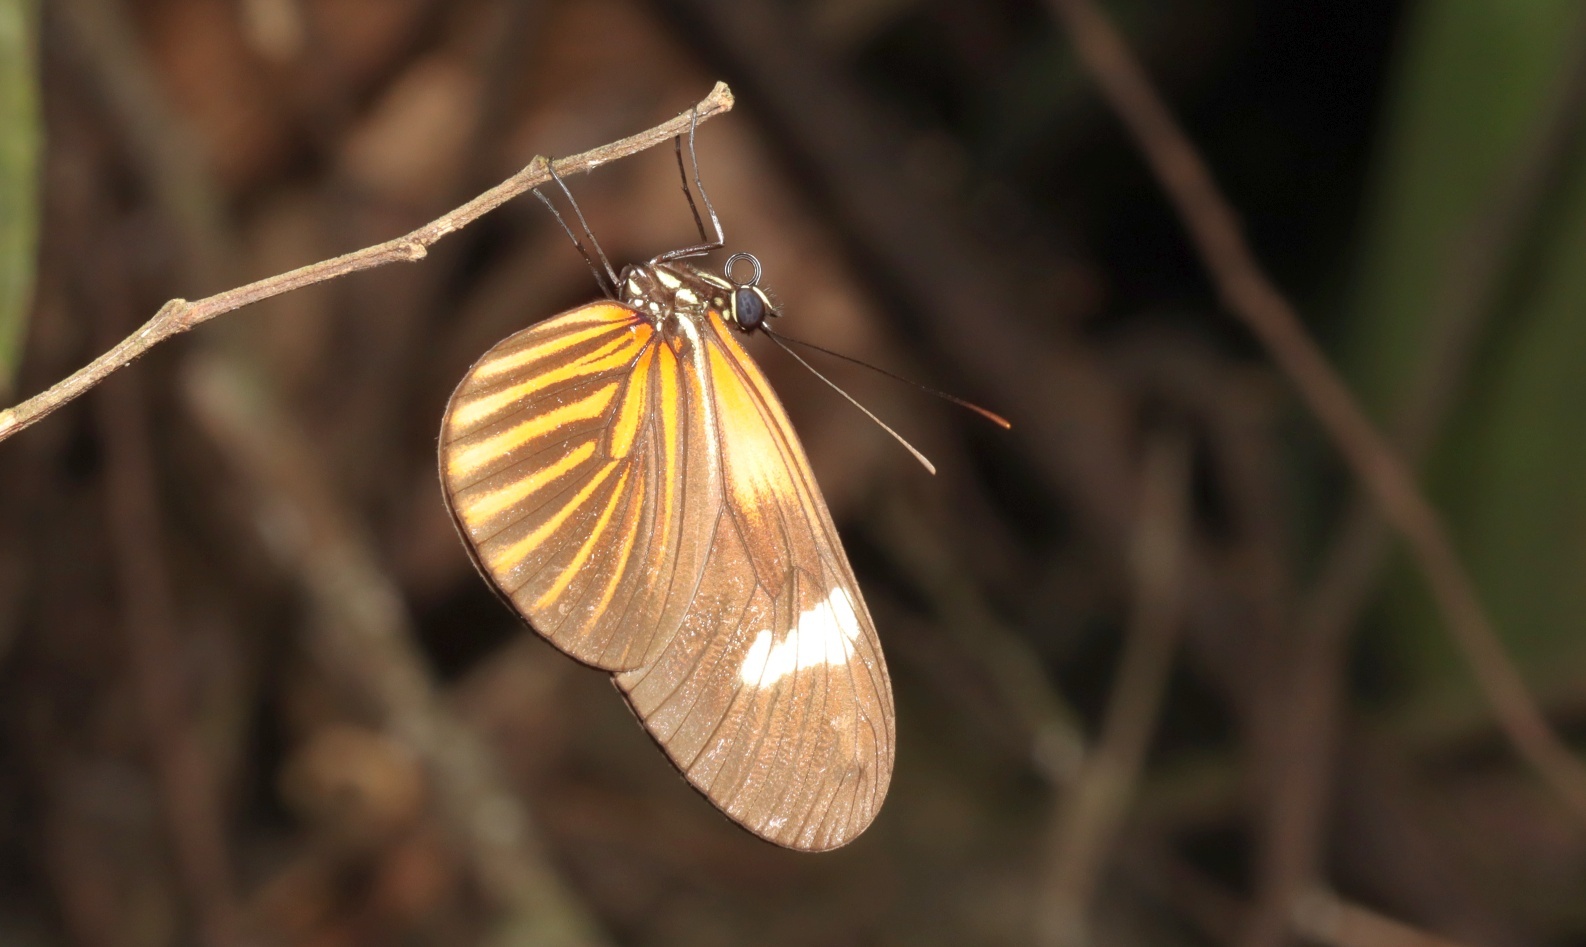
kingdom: Animalia
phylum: Arthropoda
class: Insecta
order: Lepidoptera
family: Nymphalidae
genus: Heliconius
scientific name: Heliconius erato
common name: Common patch longwing
